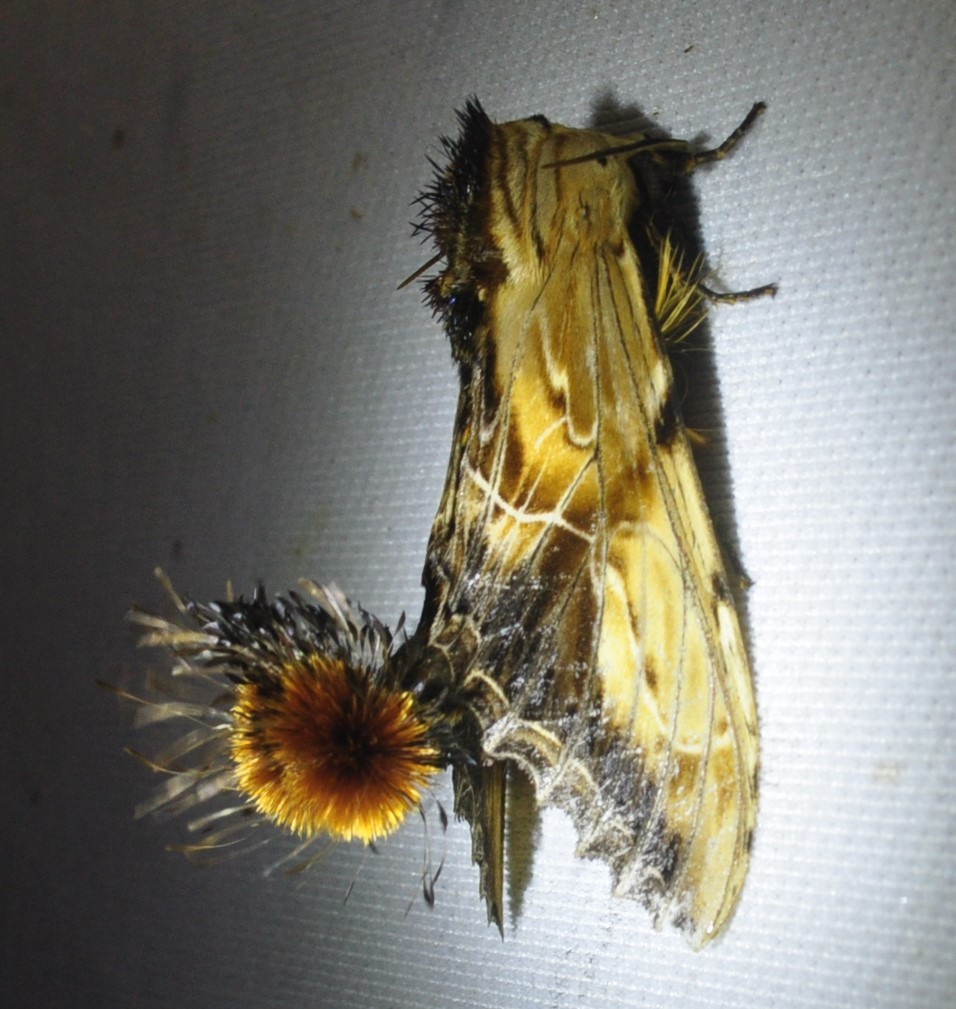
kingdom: Animalia
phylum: Arthropoda
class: Insecta
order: Lepidoptera
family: Notodontidae
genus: Dudusa
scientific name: Dudusa sphingiformis
